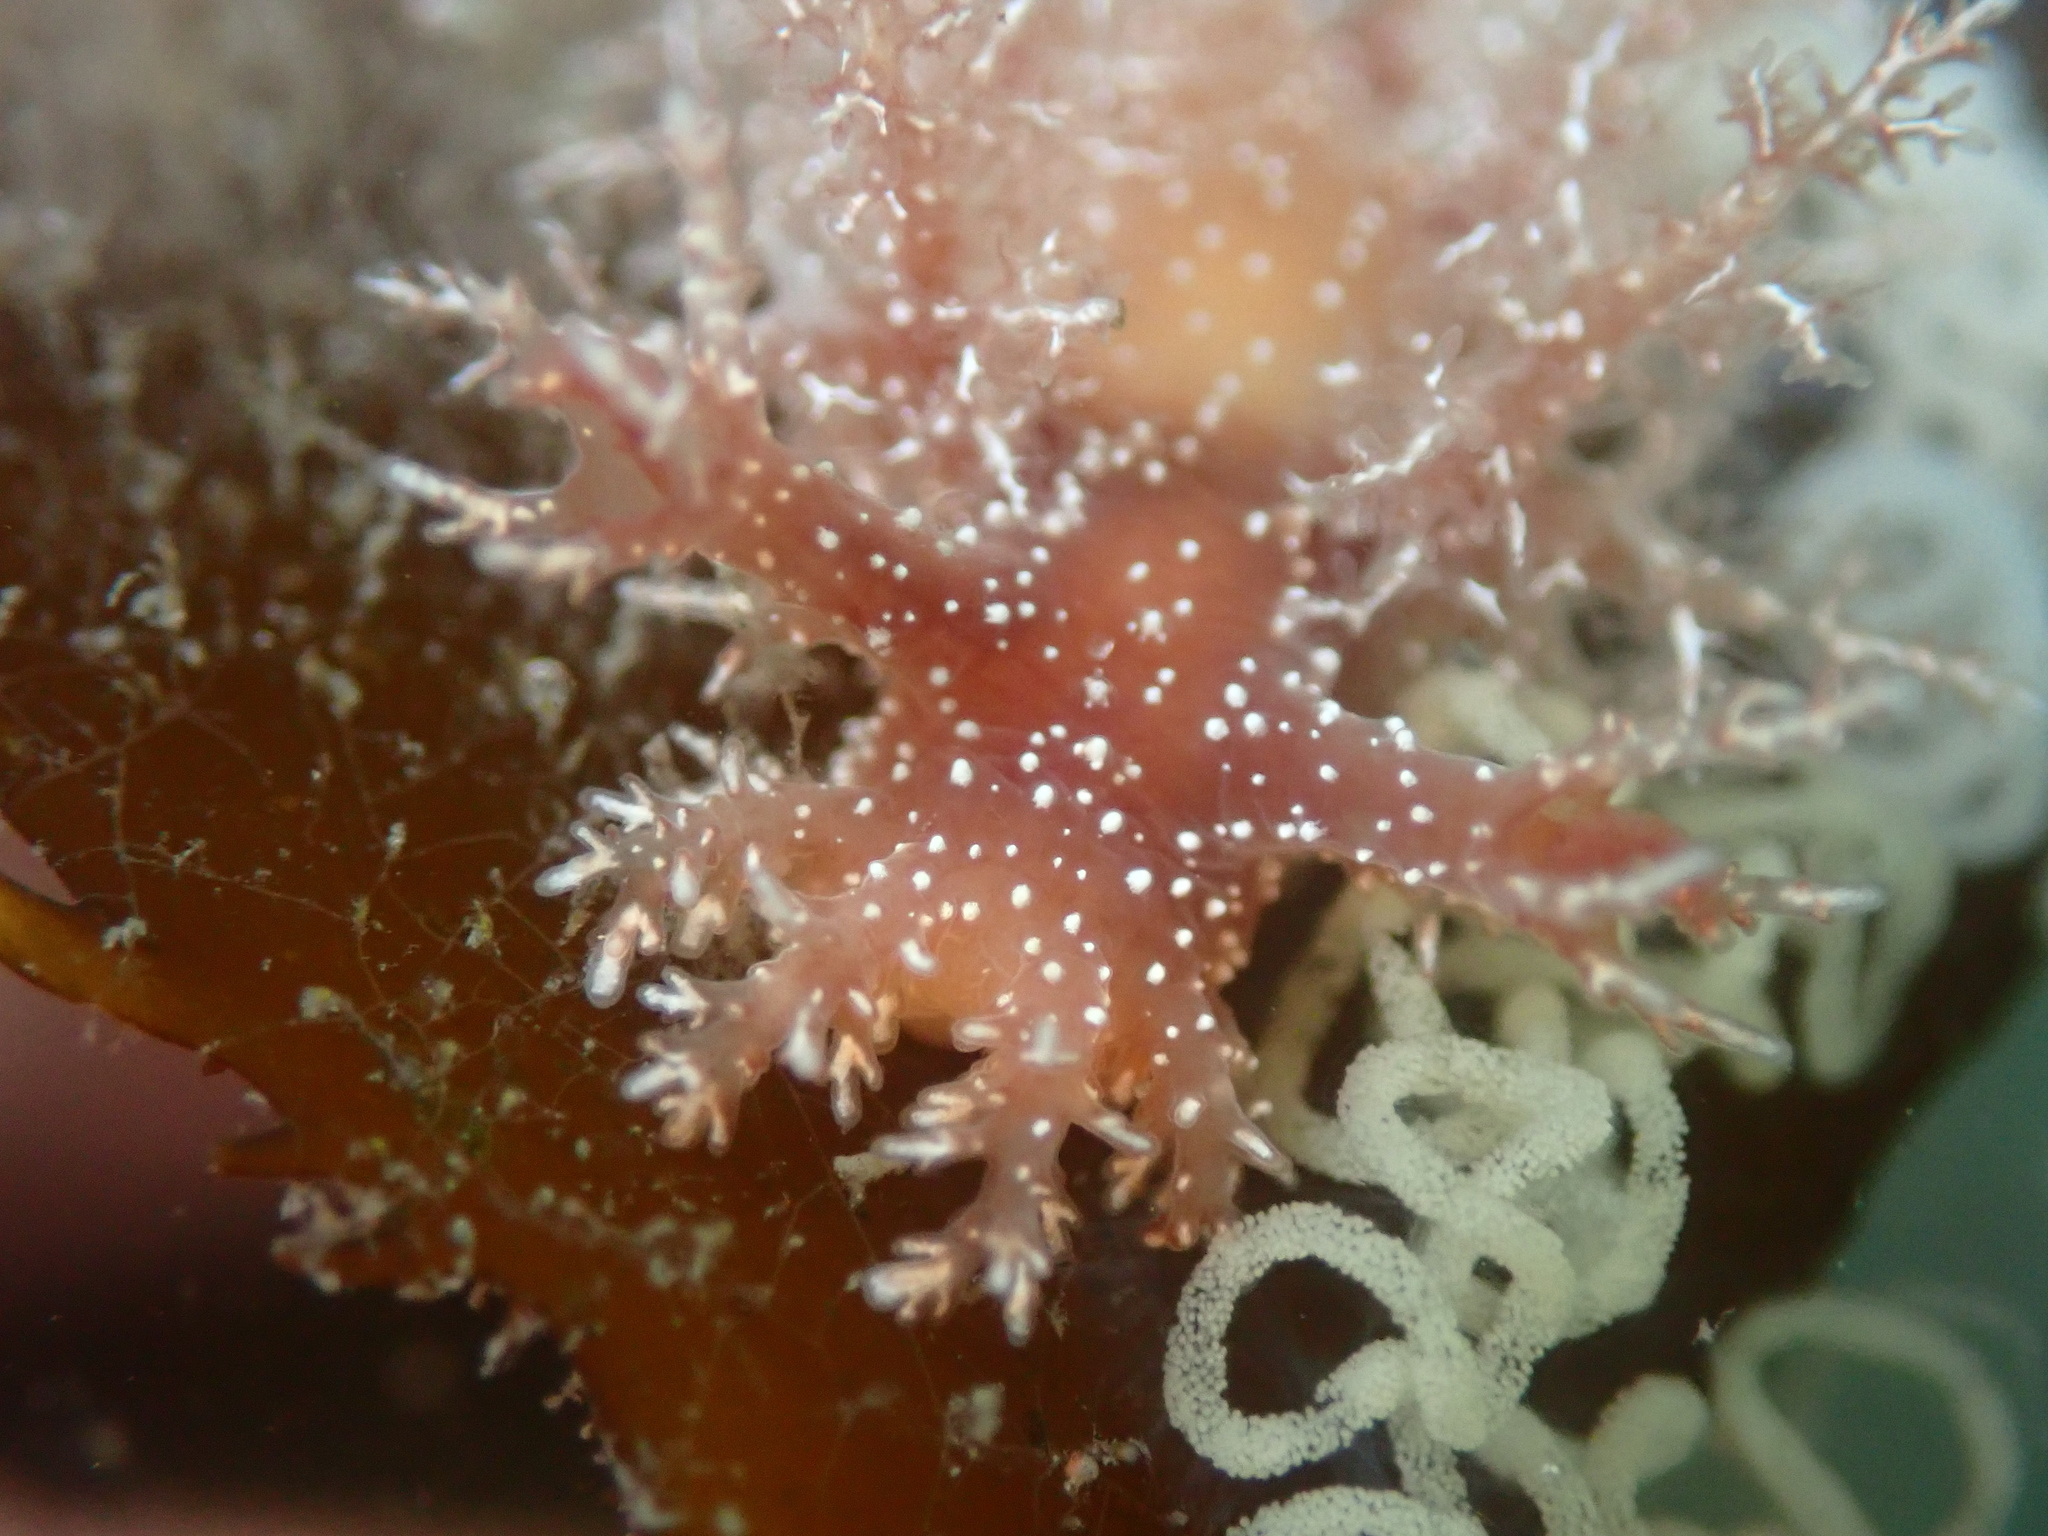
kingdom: Animalia
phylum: Mollusca
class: Gastropoda
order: Nudibranchia
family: Dendronotidae
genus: Dendronotus
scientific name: Dendronotus venustus
